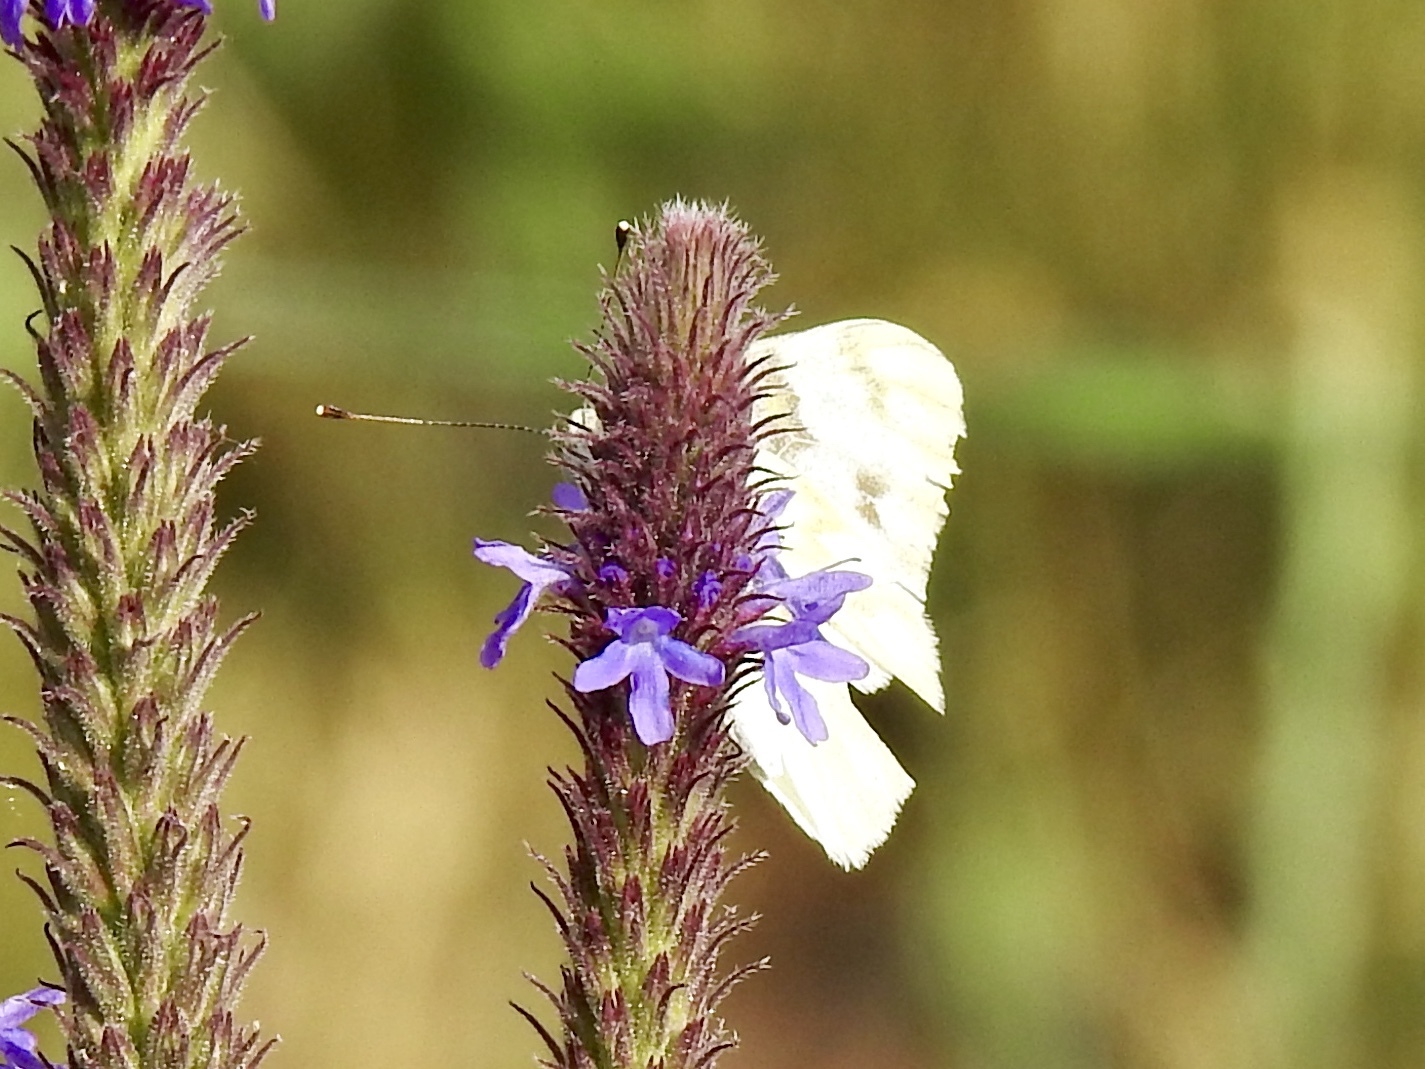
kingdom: Animalia
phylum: Arthropoda
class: Insecta
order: Lepidoptera
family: Pieridae
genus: Pontia
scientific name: Pontia protodice
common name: Checkered white
